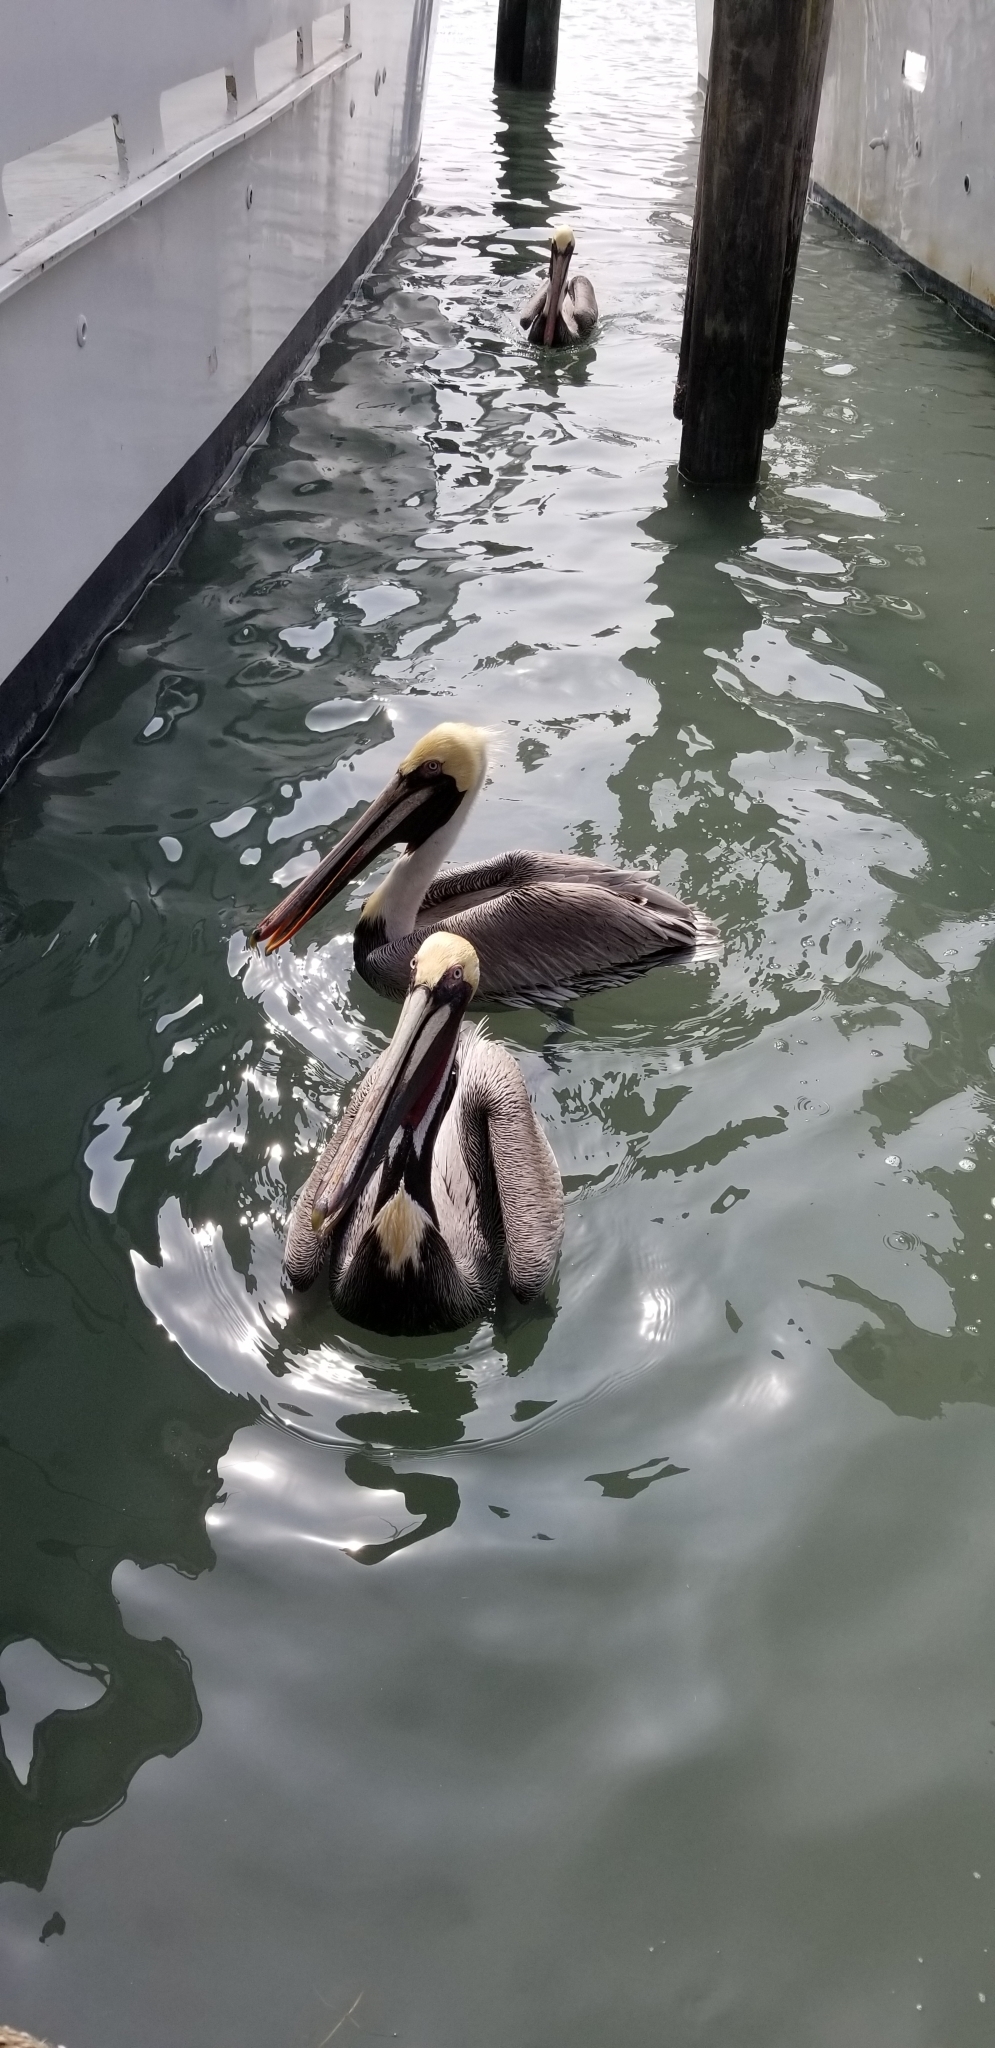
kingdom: Animalia
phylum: Chordata
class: Aves
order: Pelecaniformes
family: Pelecanidae
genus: Pelecanus
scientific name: Pelecanus occidentalis
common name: Brown pelican
